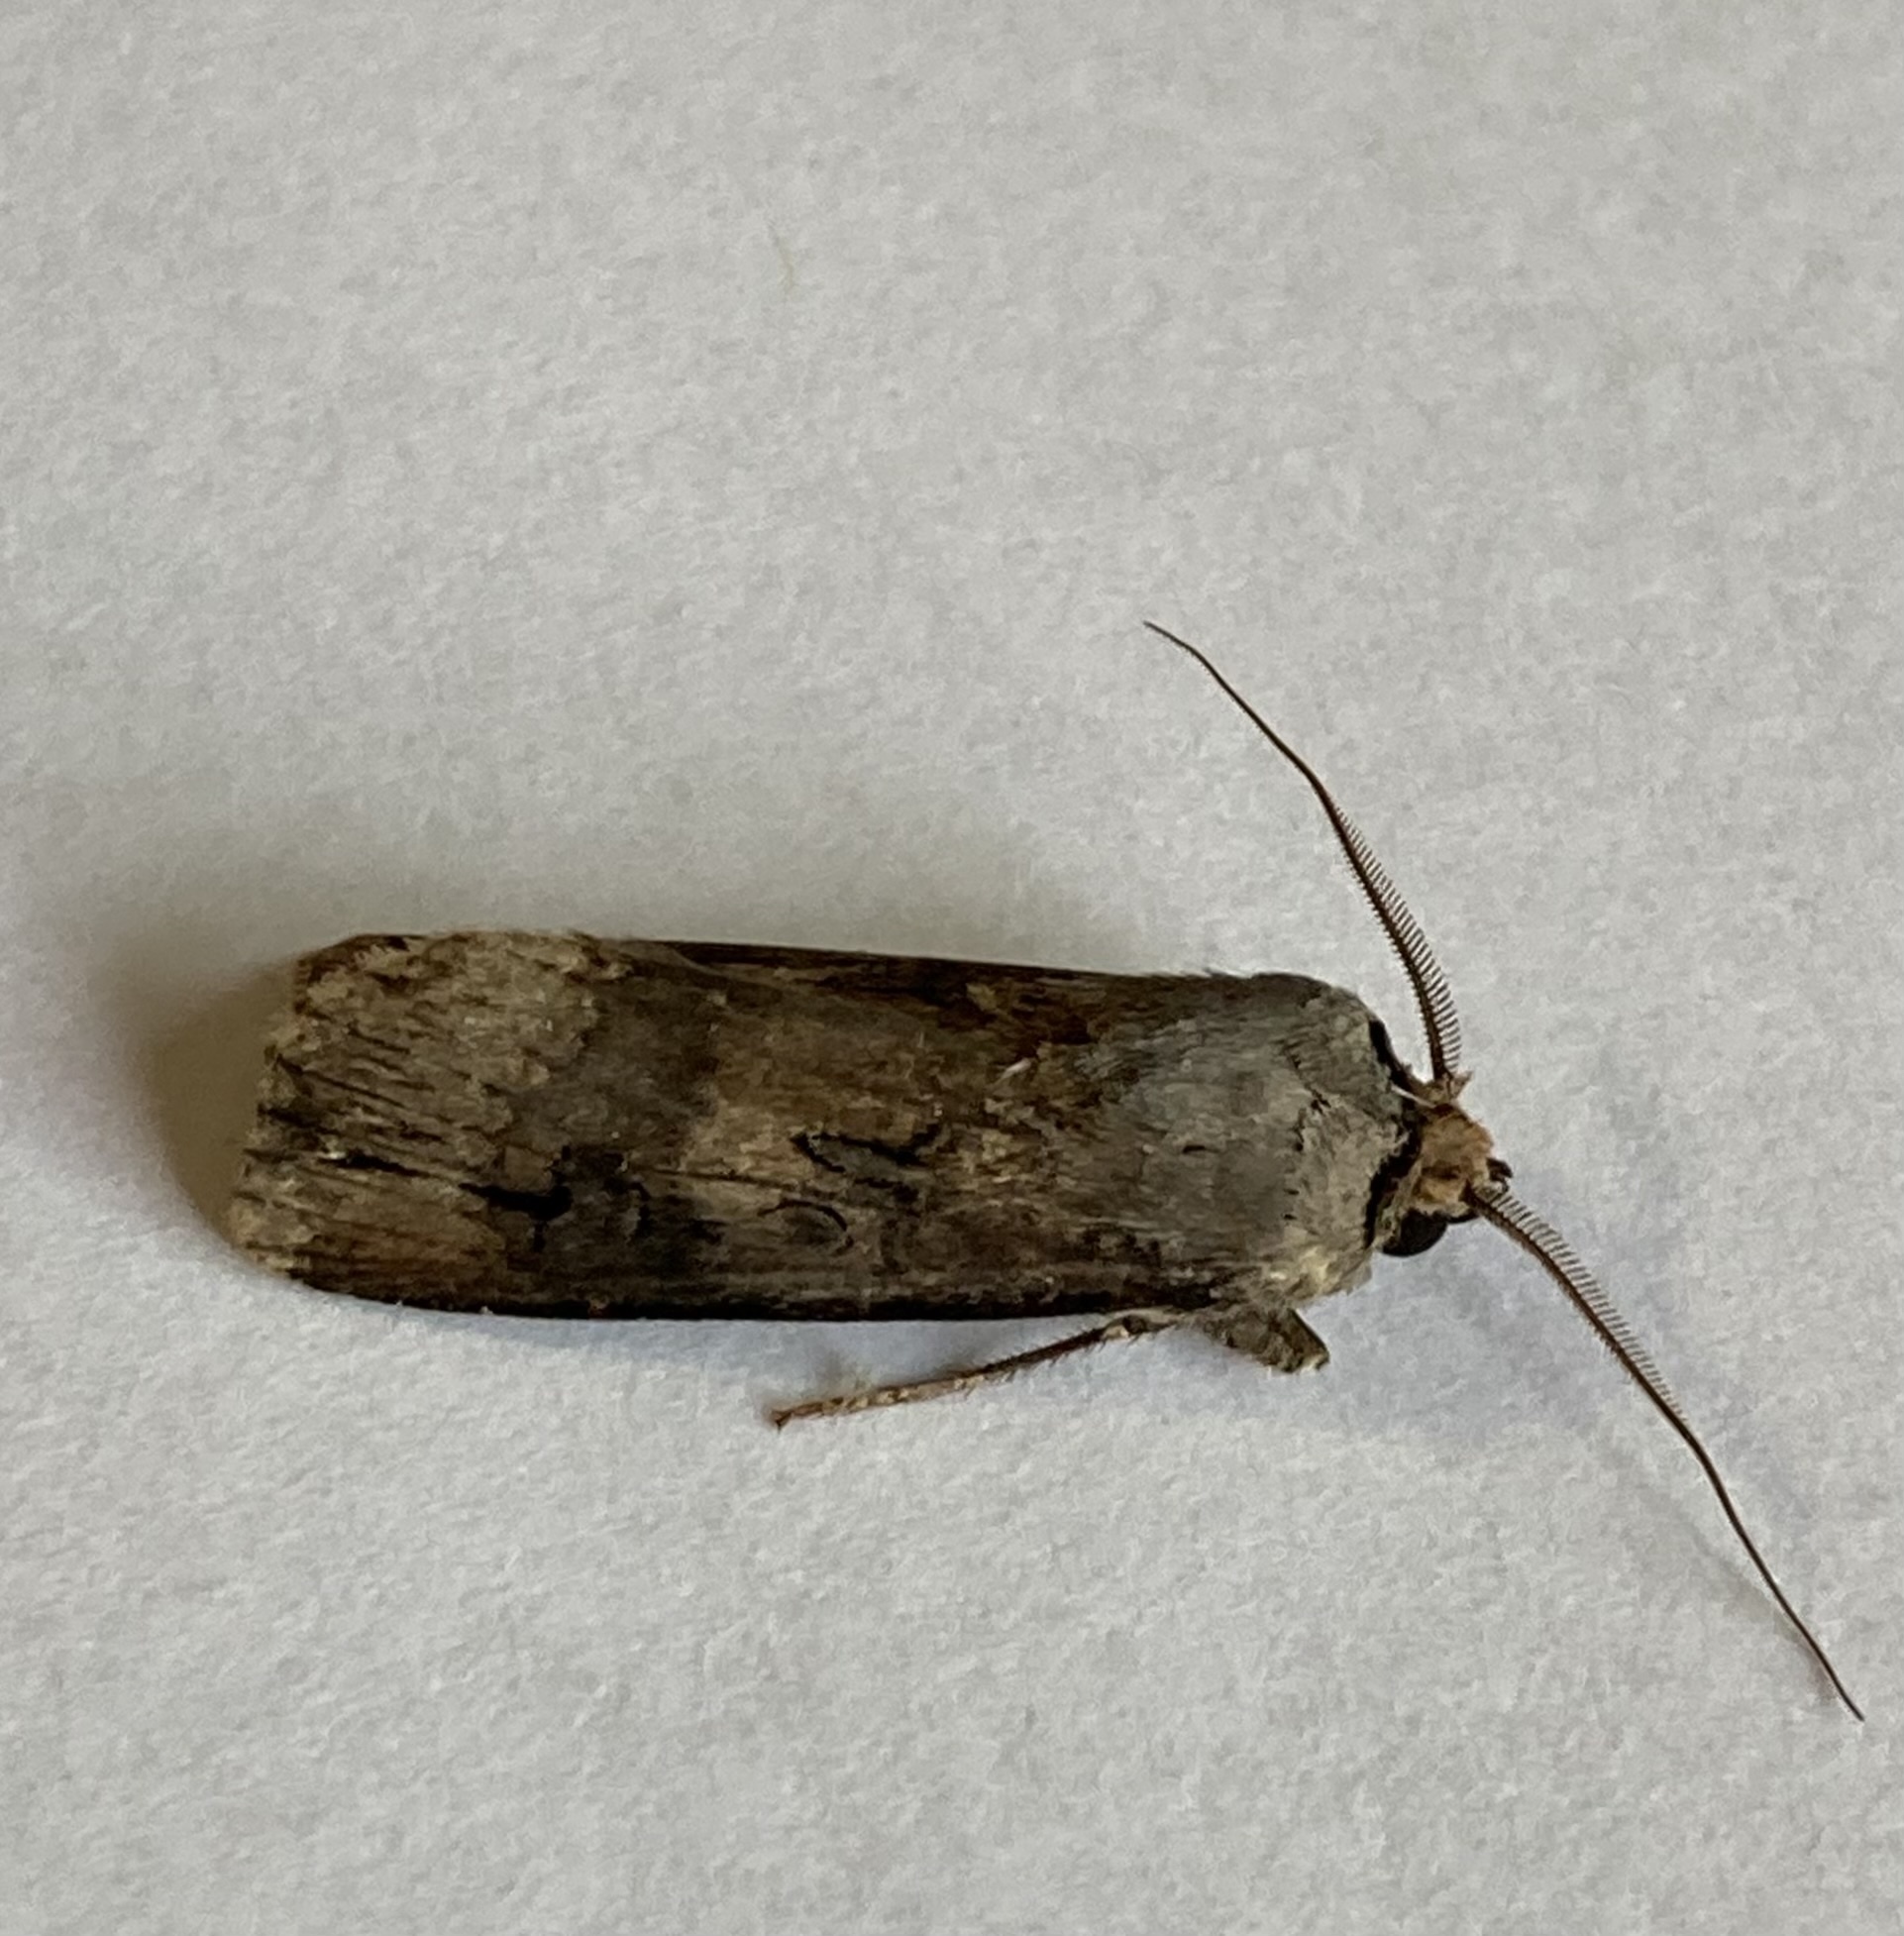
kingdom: Animalia
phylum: Arthropoda
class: Insecta
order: Lepidoptera
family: Noctuidae
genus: Agrotis
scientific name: Agrotis ipsilon
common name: Dark sword-grass
